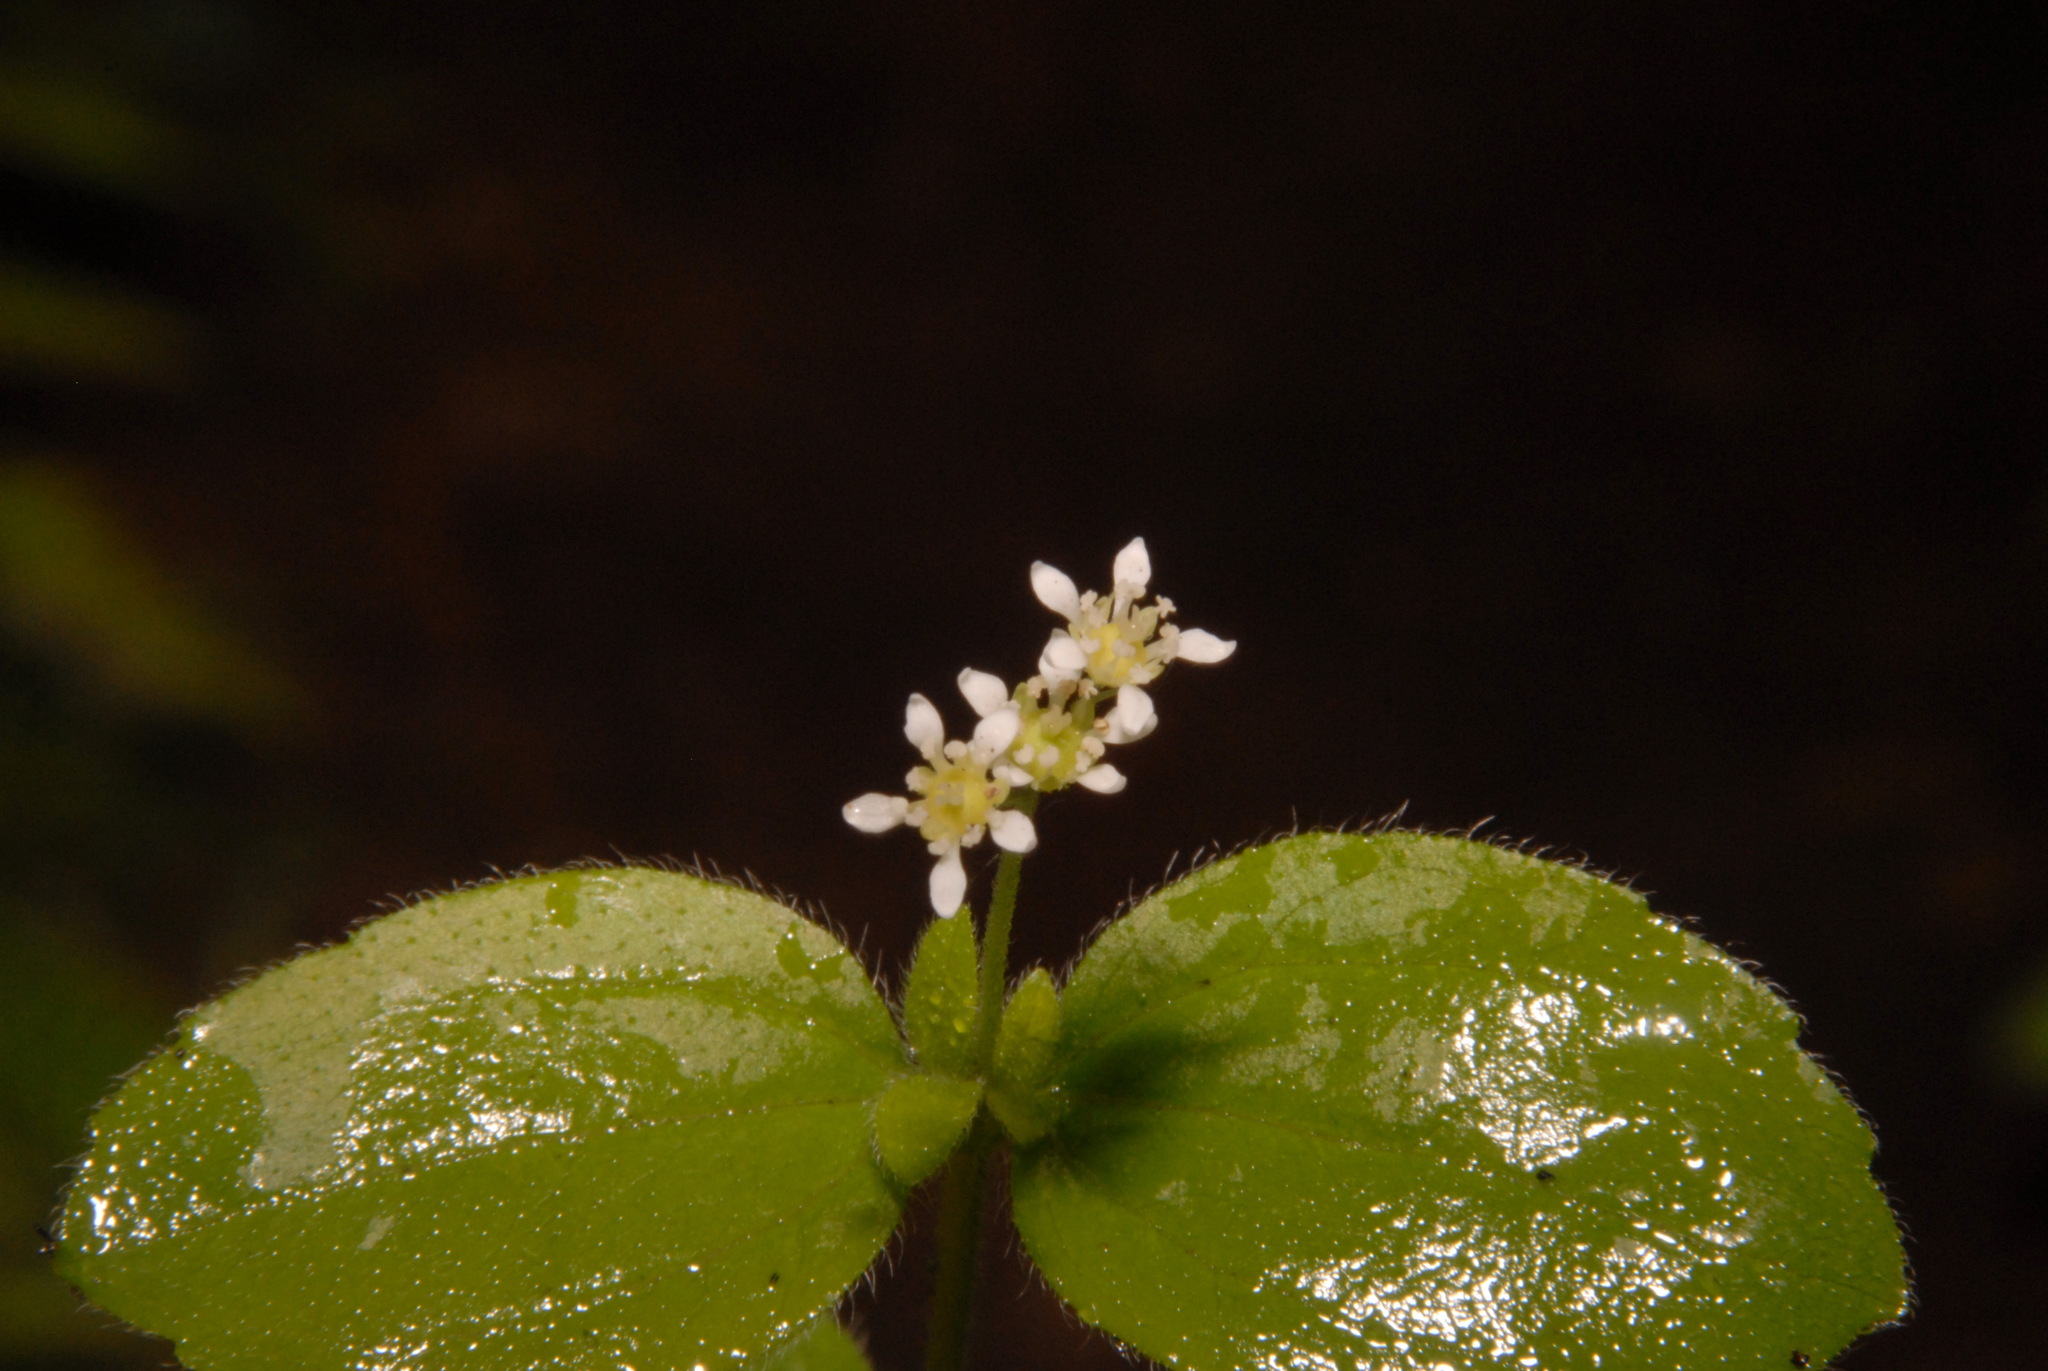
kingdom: Plantae
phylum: Tracheophyta
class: Magnoliopsida
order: Cornales
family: Hydrangeaceae
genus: Whipplea
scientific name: Whipplea modesta
